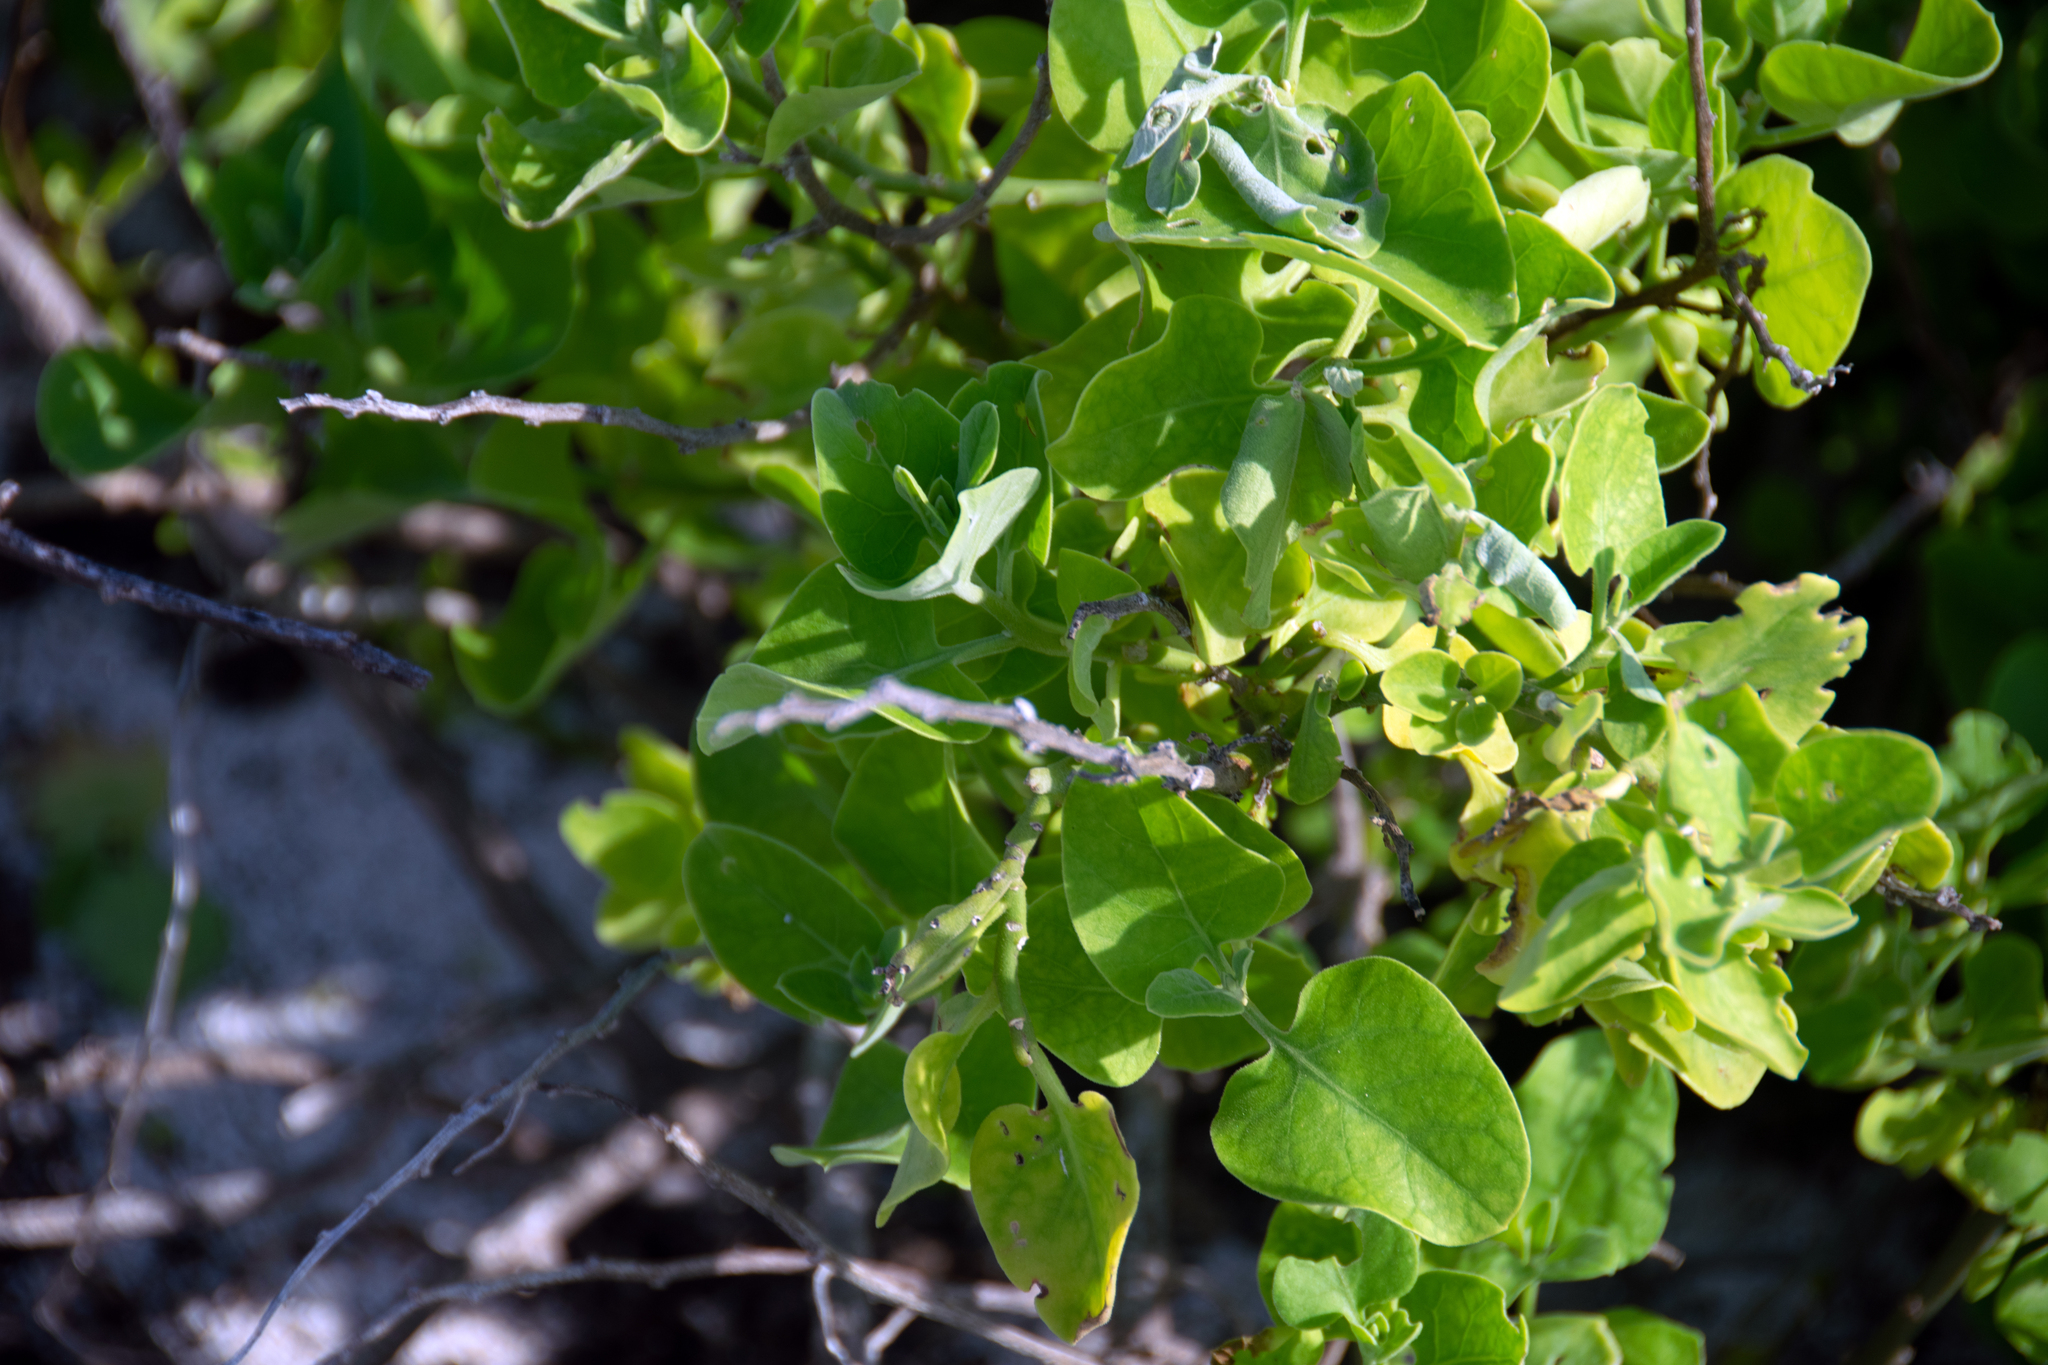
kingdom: Plantae
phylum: Tracheophyta
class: Magnoliopsida
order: Caryophyllales
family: Nyctaginaceae
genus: Cryptocarpus
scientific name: Cryptocarpus pyriformis
